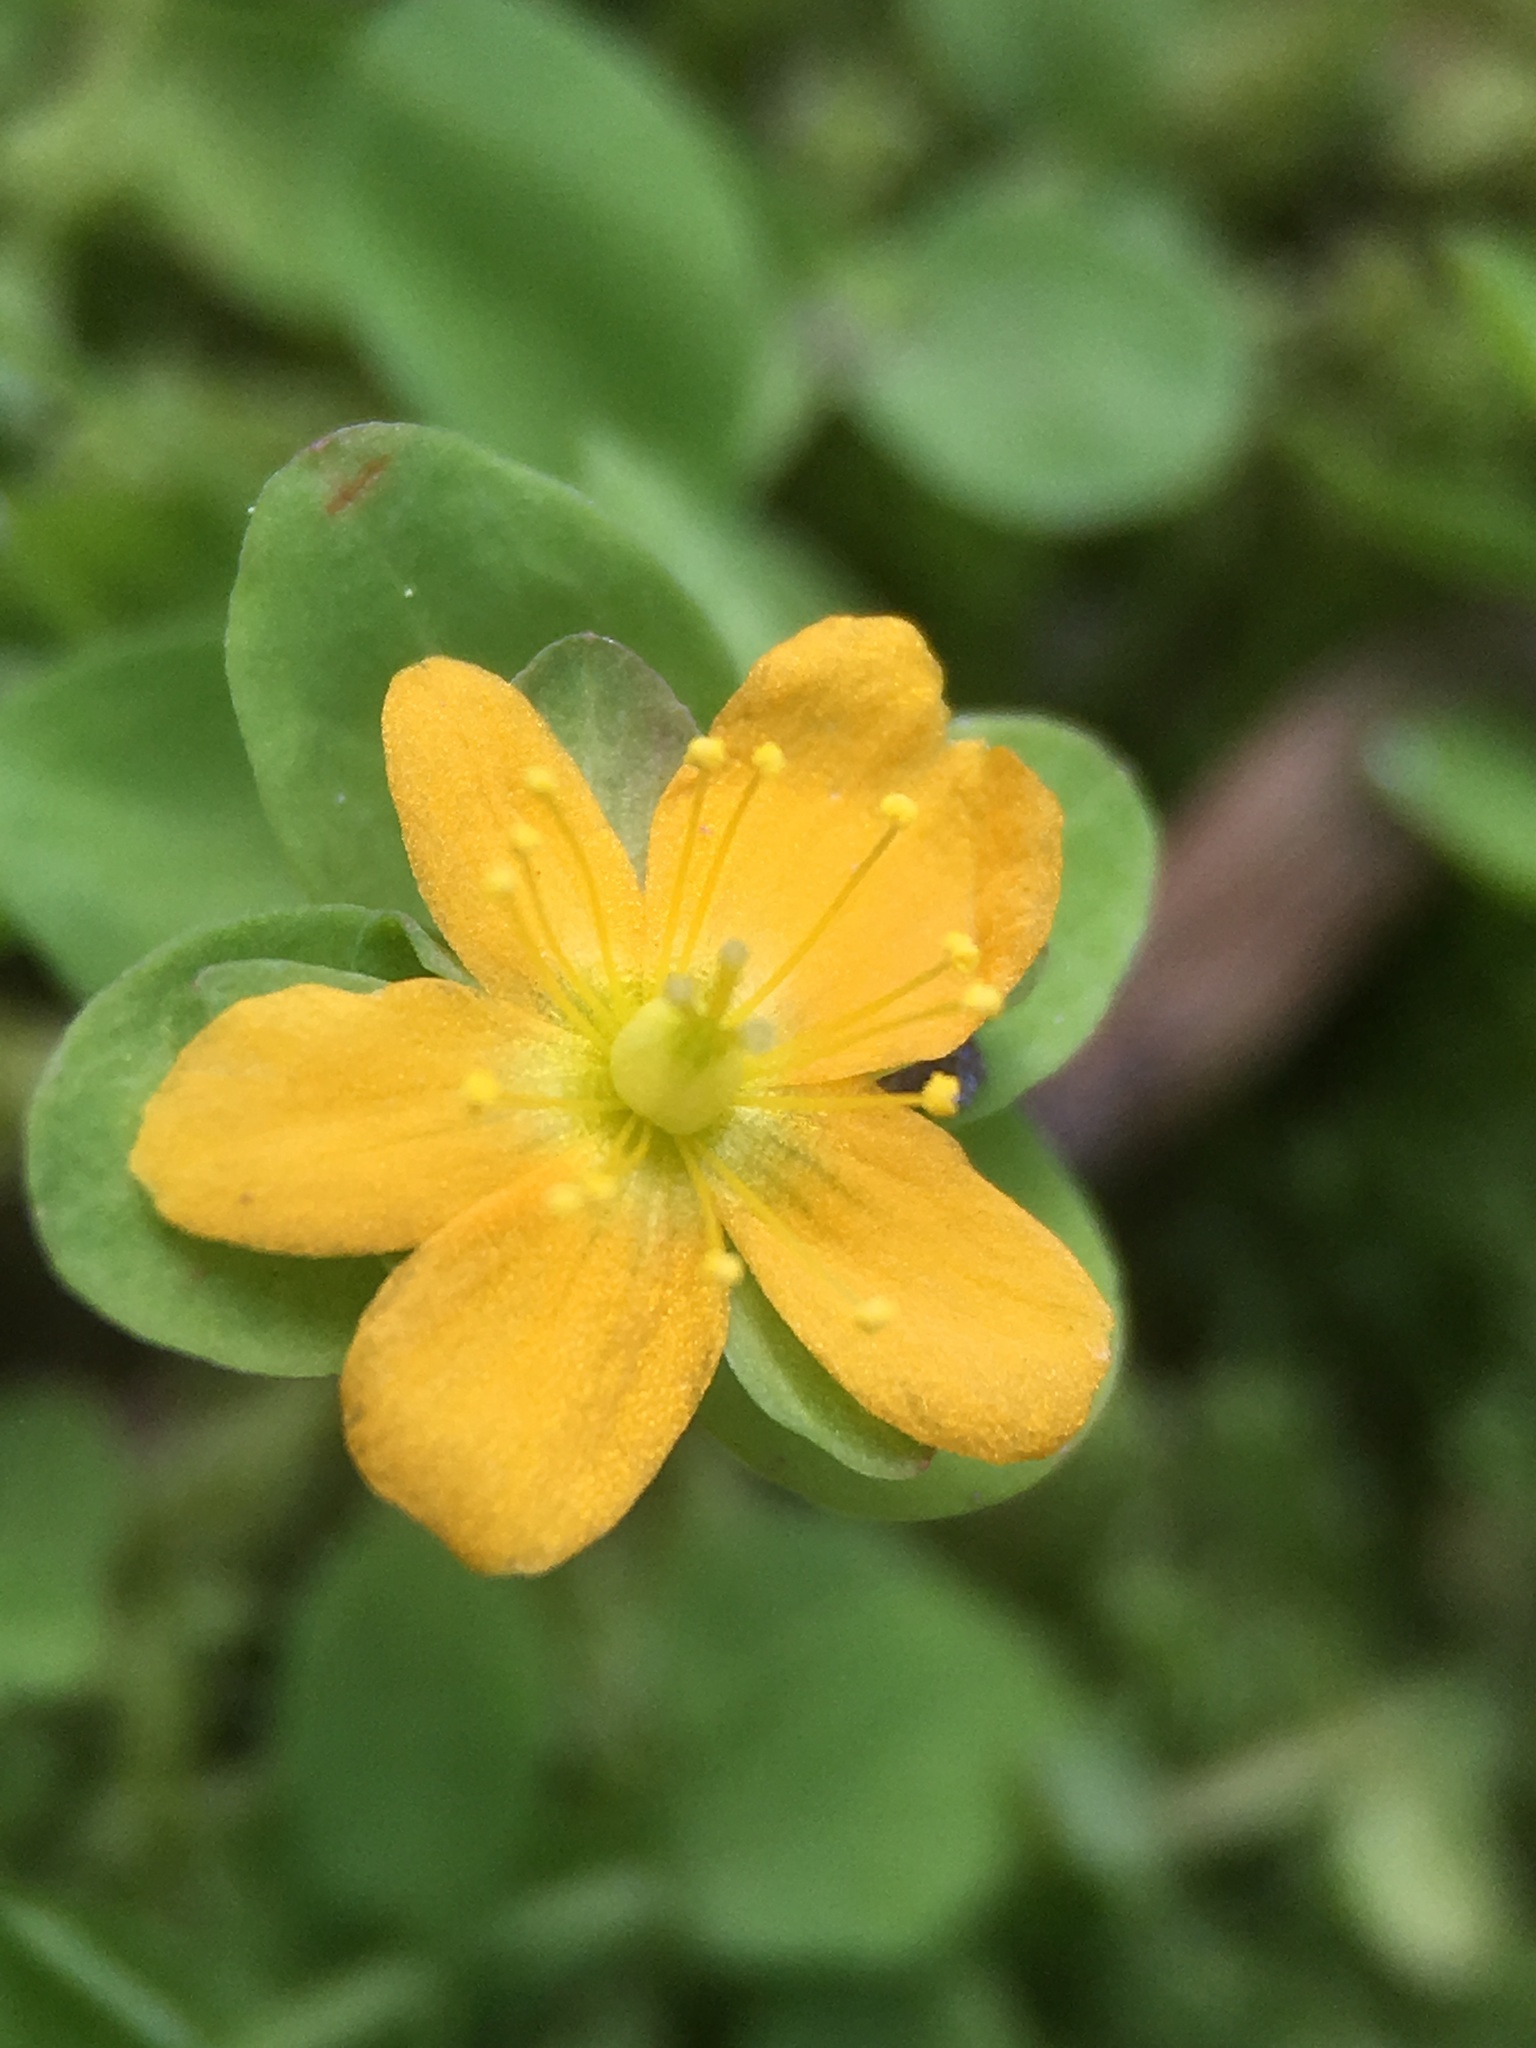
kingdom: Plantae
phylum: Tracheophyta
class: Magnoliopsida
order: Malpighiales
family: Hypericaceae
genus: Hypericum
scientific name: Hypericum anagalloides
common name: Bog st. john's-wort
